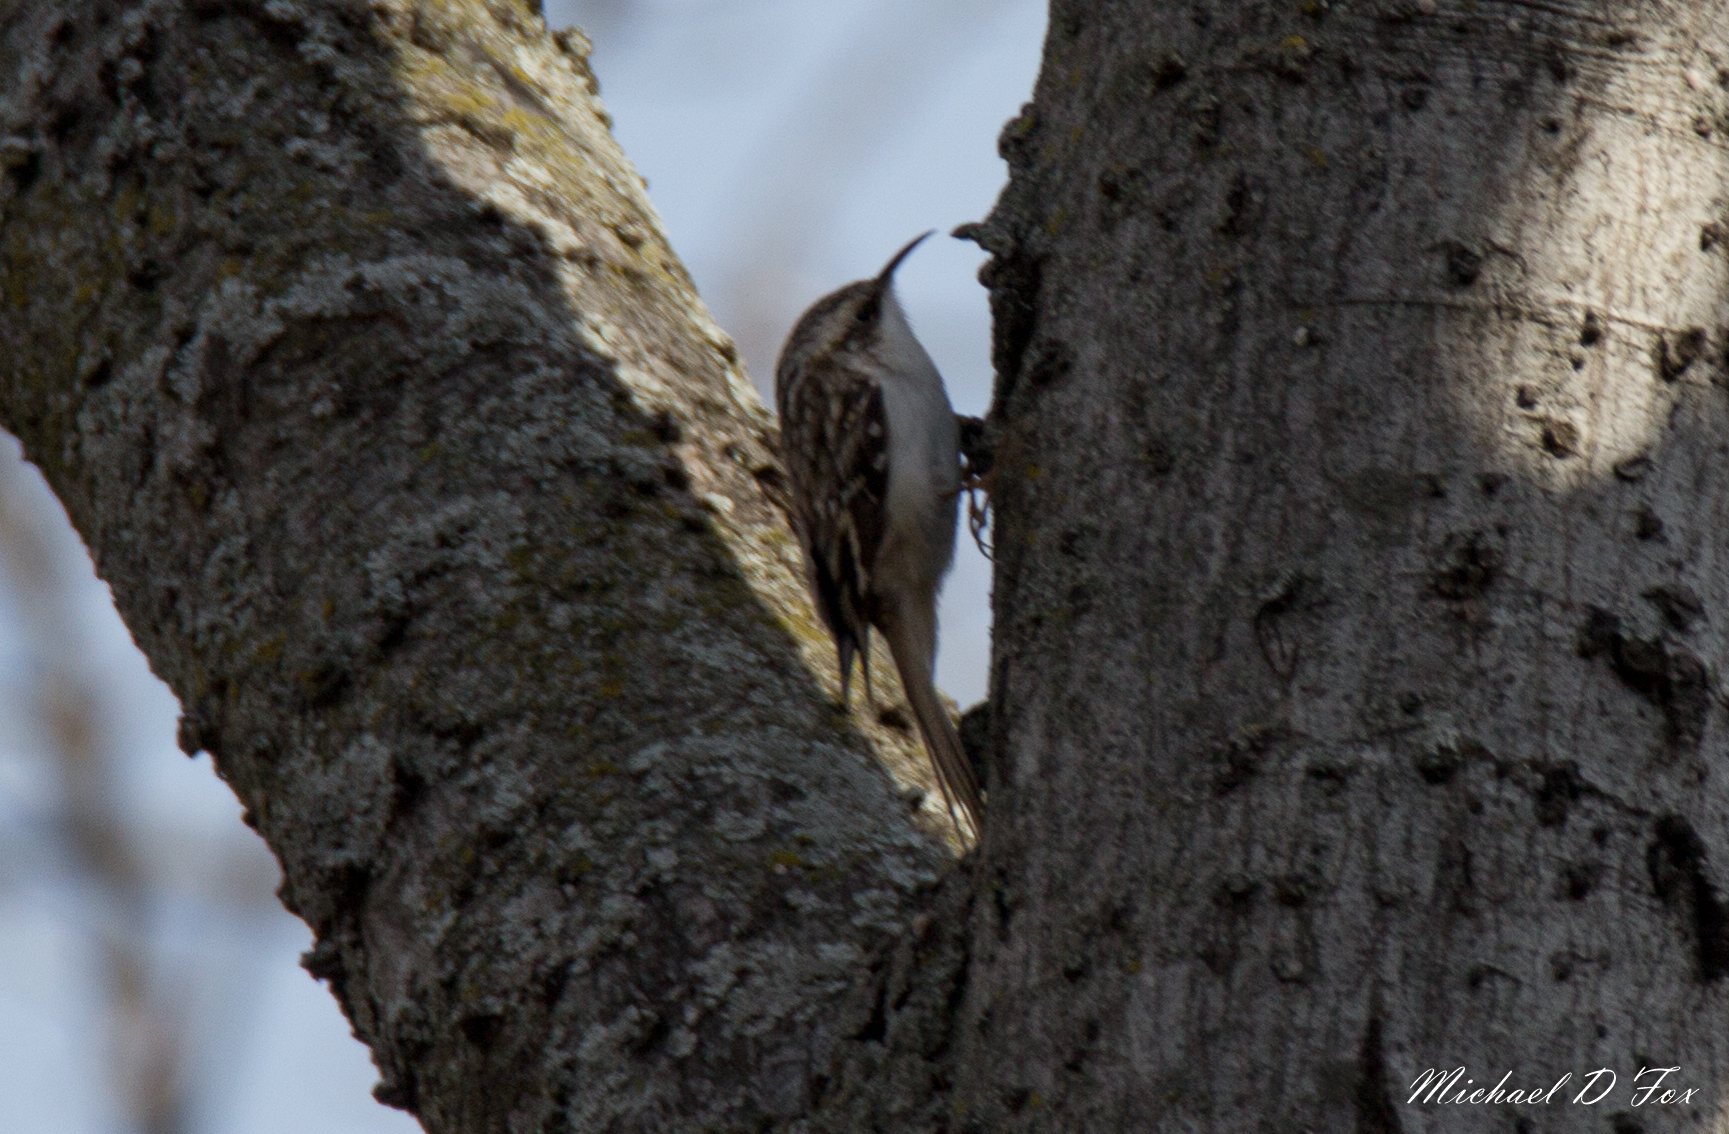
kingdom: Animalia
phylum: Chordata
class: Aves
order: Passeriformes
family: Certhiidae
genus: Certhia
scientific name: Certhia americana
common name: Brown creeper
